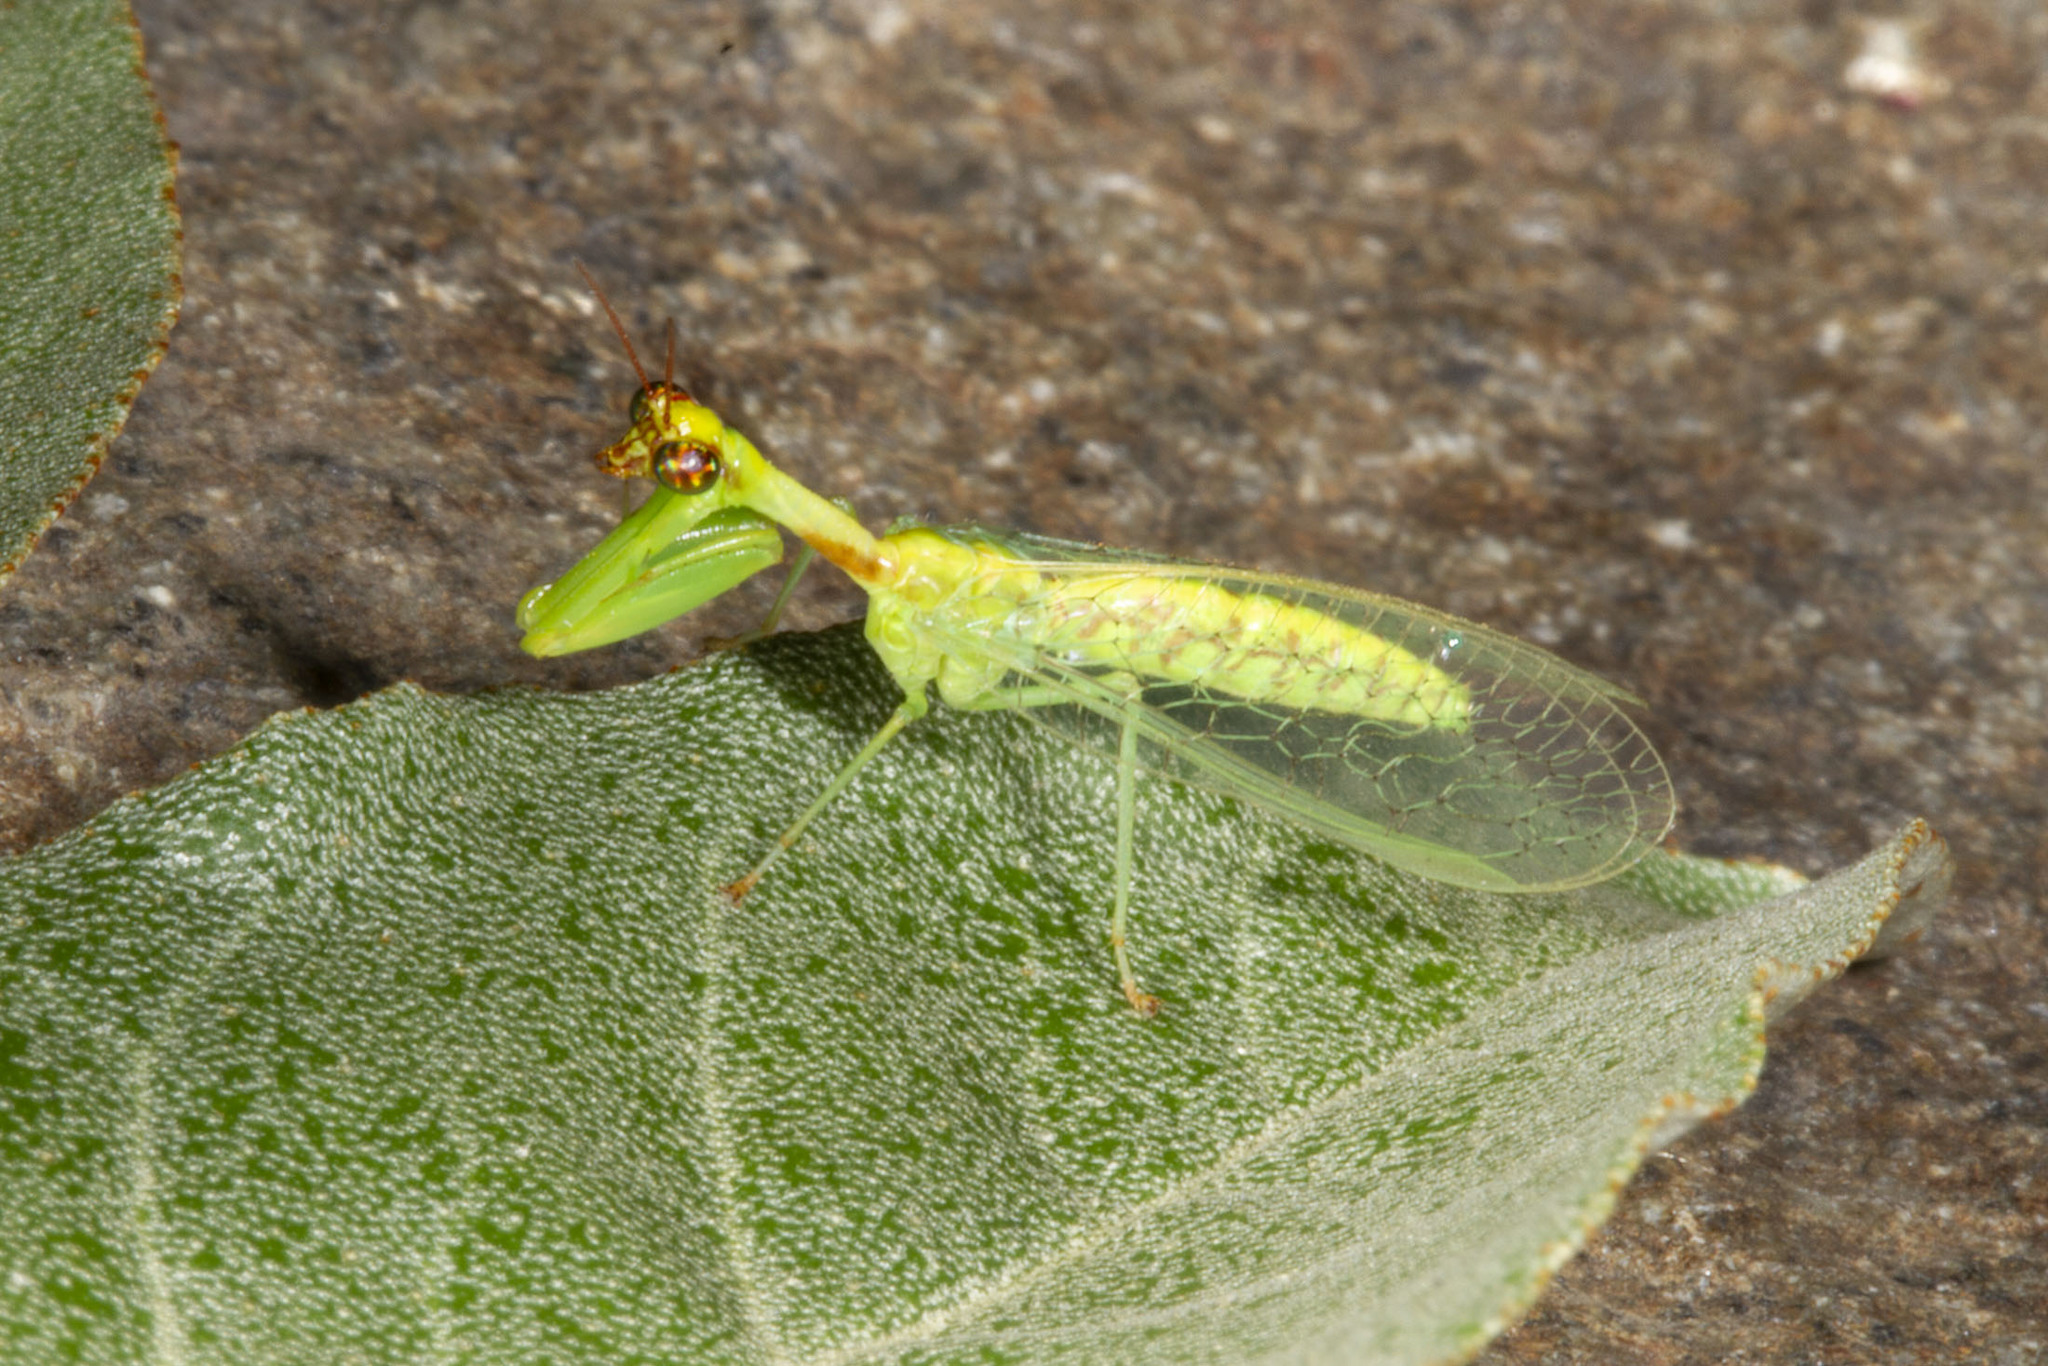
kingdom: Animalia
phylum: Arthropoda
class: Insecta
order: Neuroptera
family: Mantispidae
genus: Zeugomantispa
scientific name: Zeugomantispa minuta
